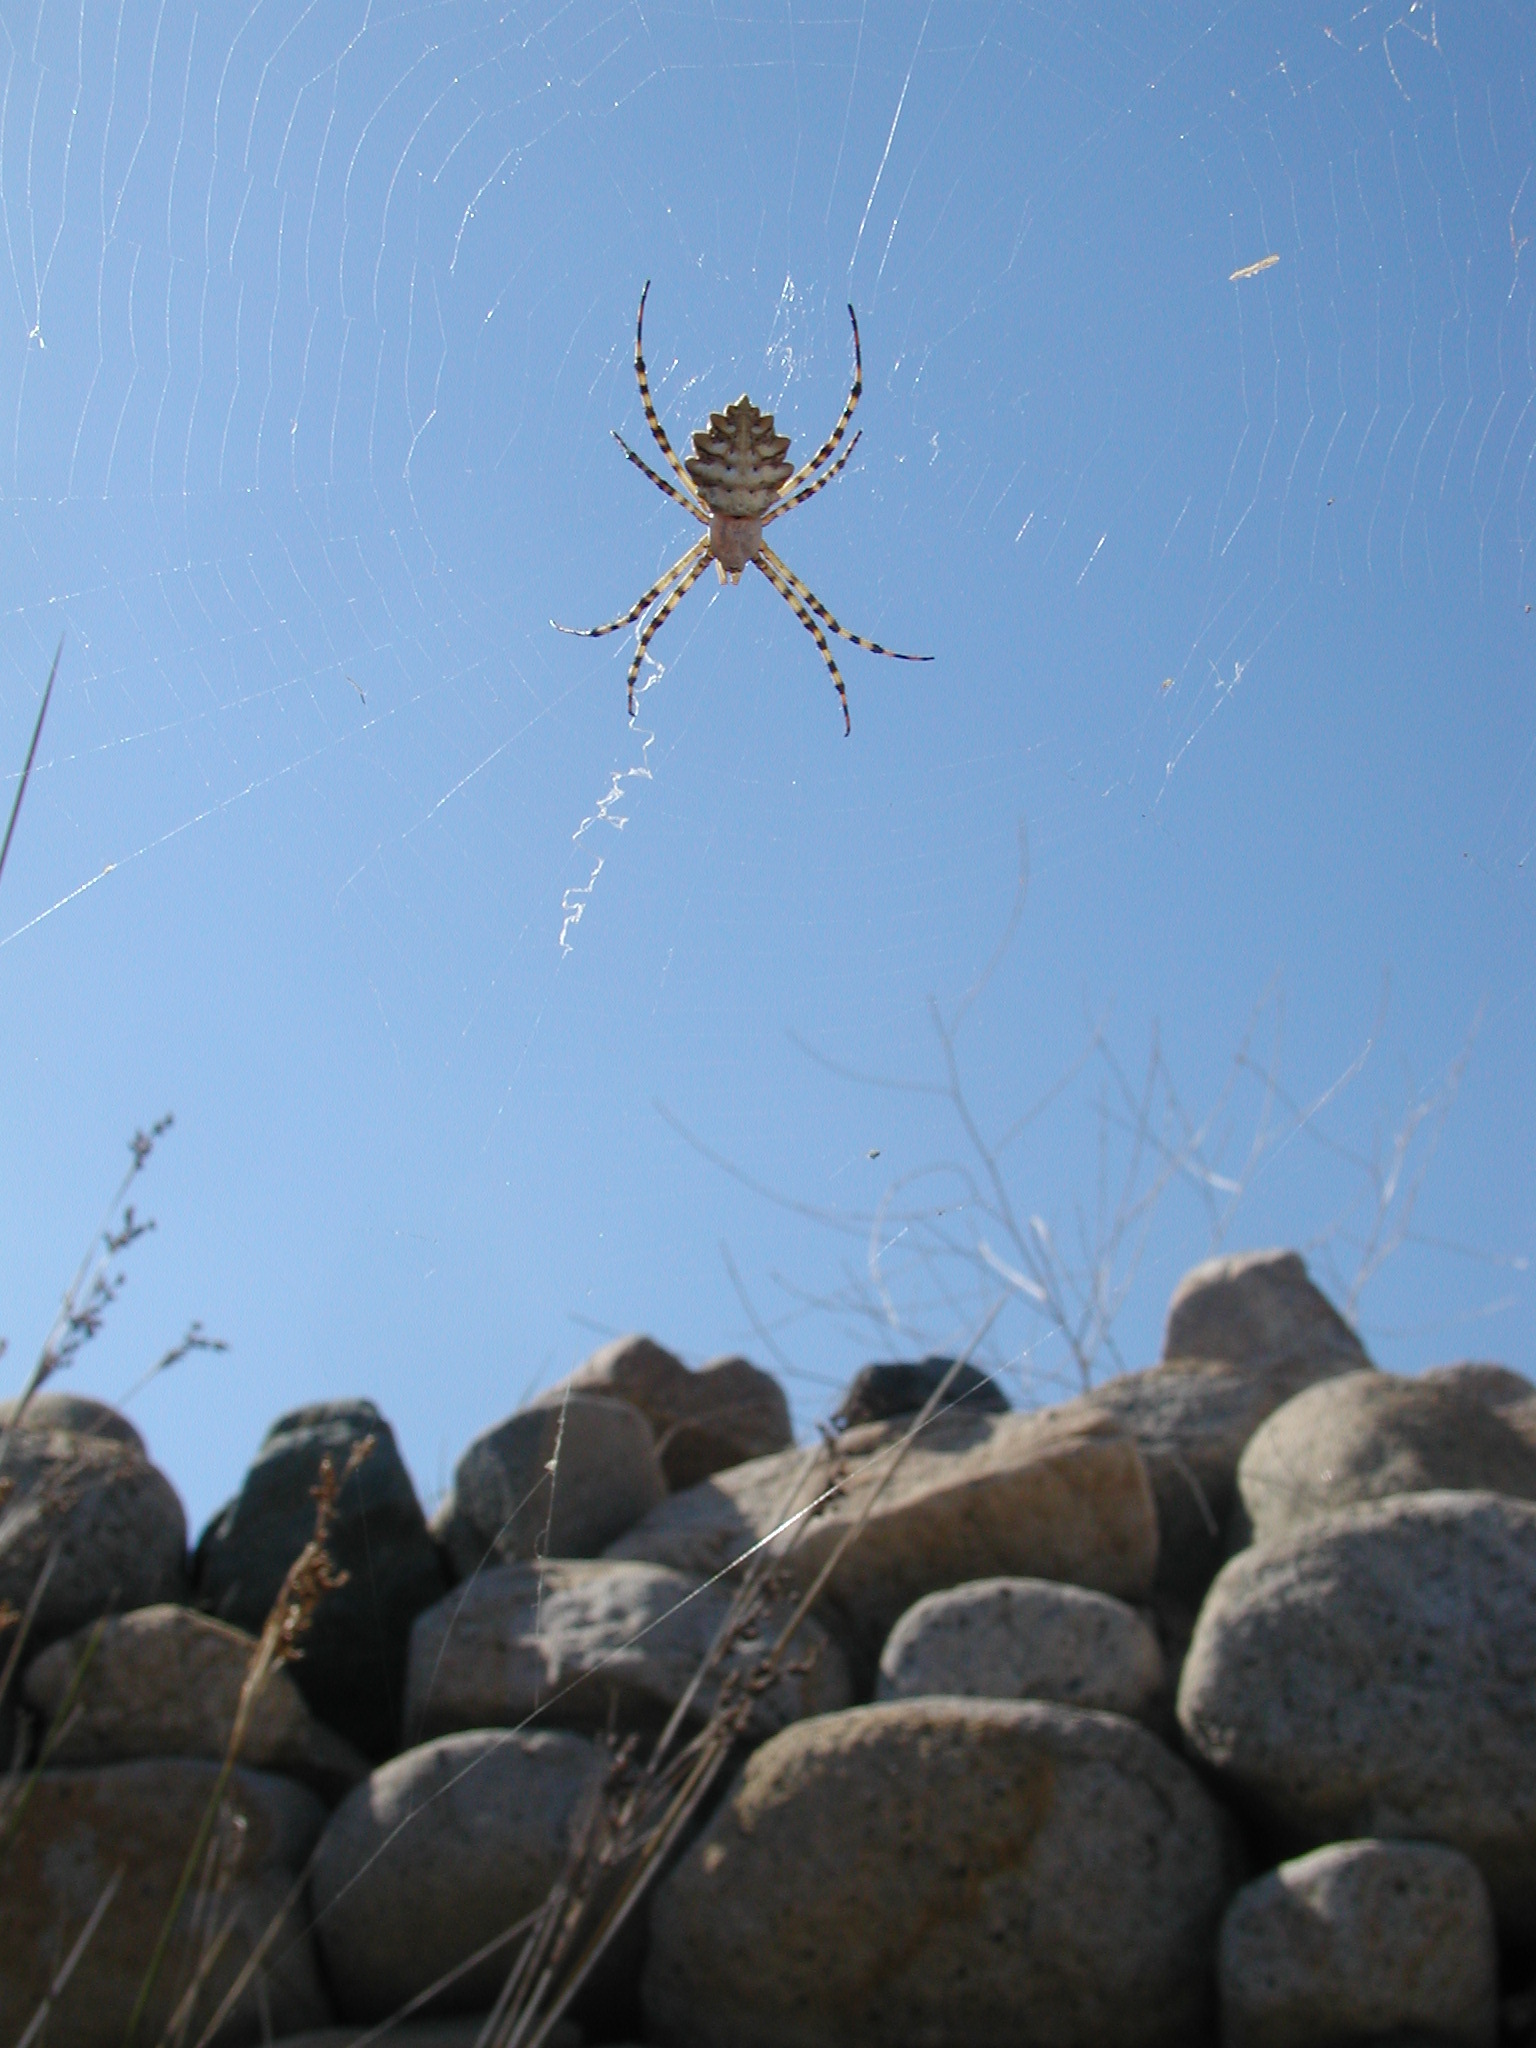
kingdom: Animalia
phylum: Arthropoda
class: Arachnida
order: Araneae
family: Araneidae
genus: Argiope
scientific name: Argiope lobata
